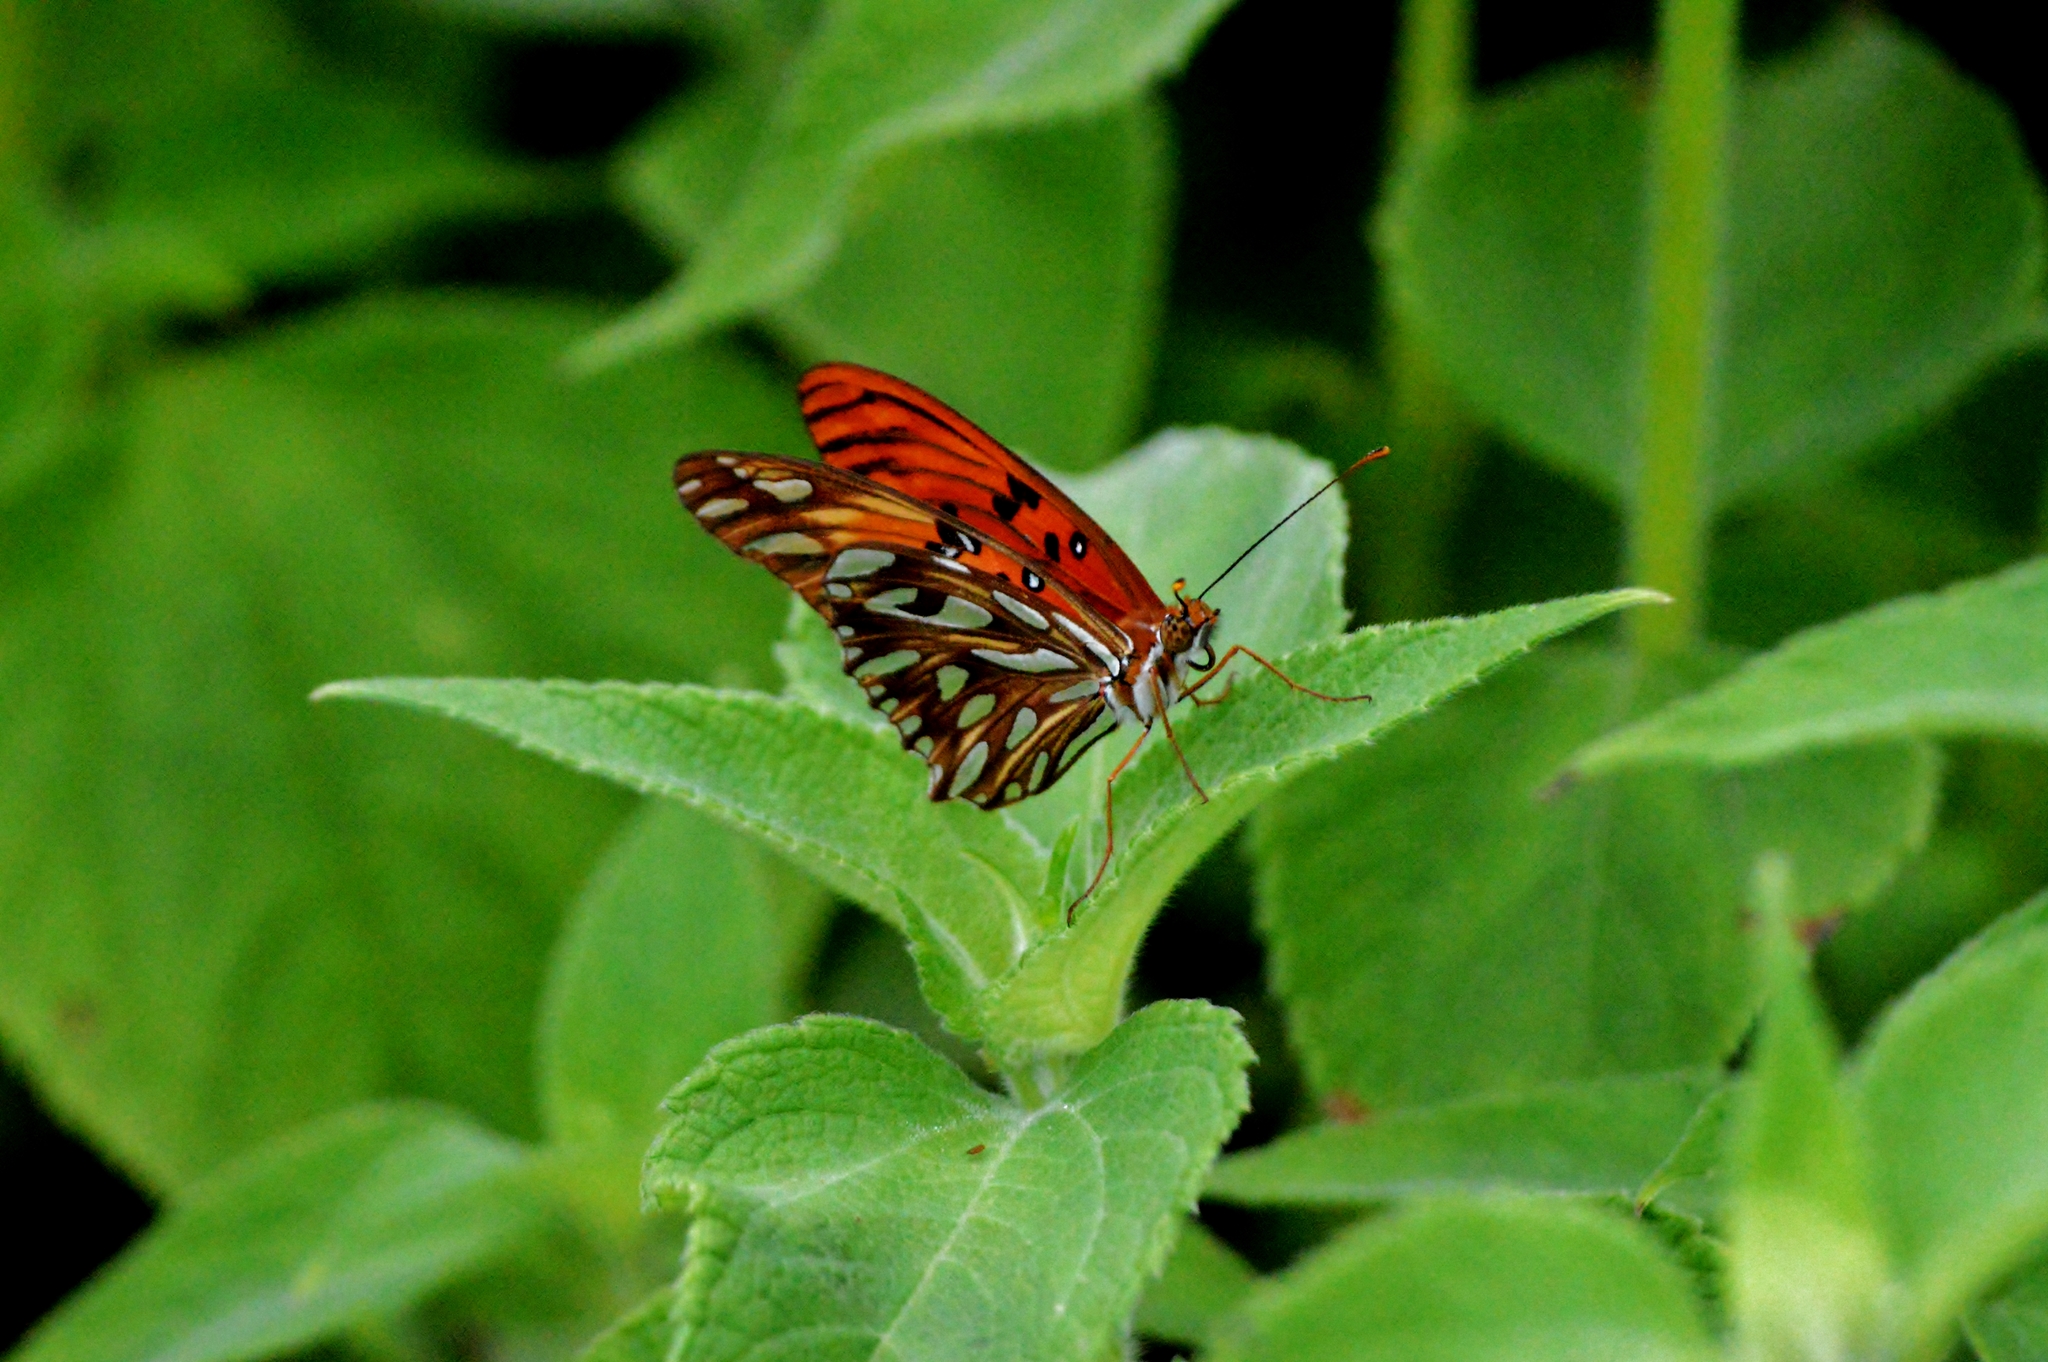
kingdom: Animalia
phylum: Arthropoda
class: Insecta
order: Lepidoptera
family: Nymphalidae
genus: Dione
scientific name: Dione vanillae
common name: Gulf fritillary
